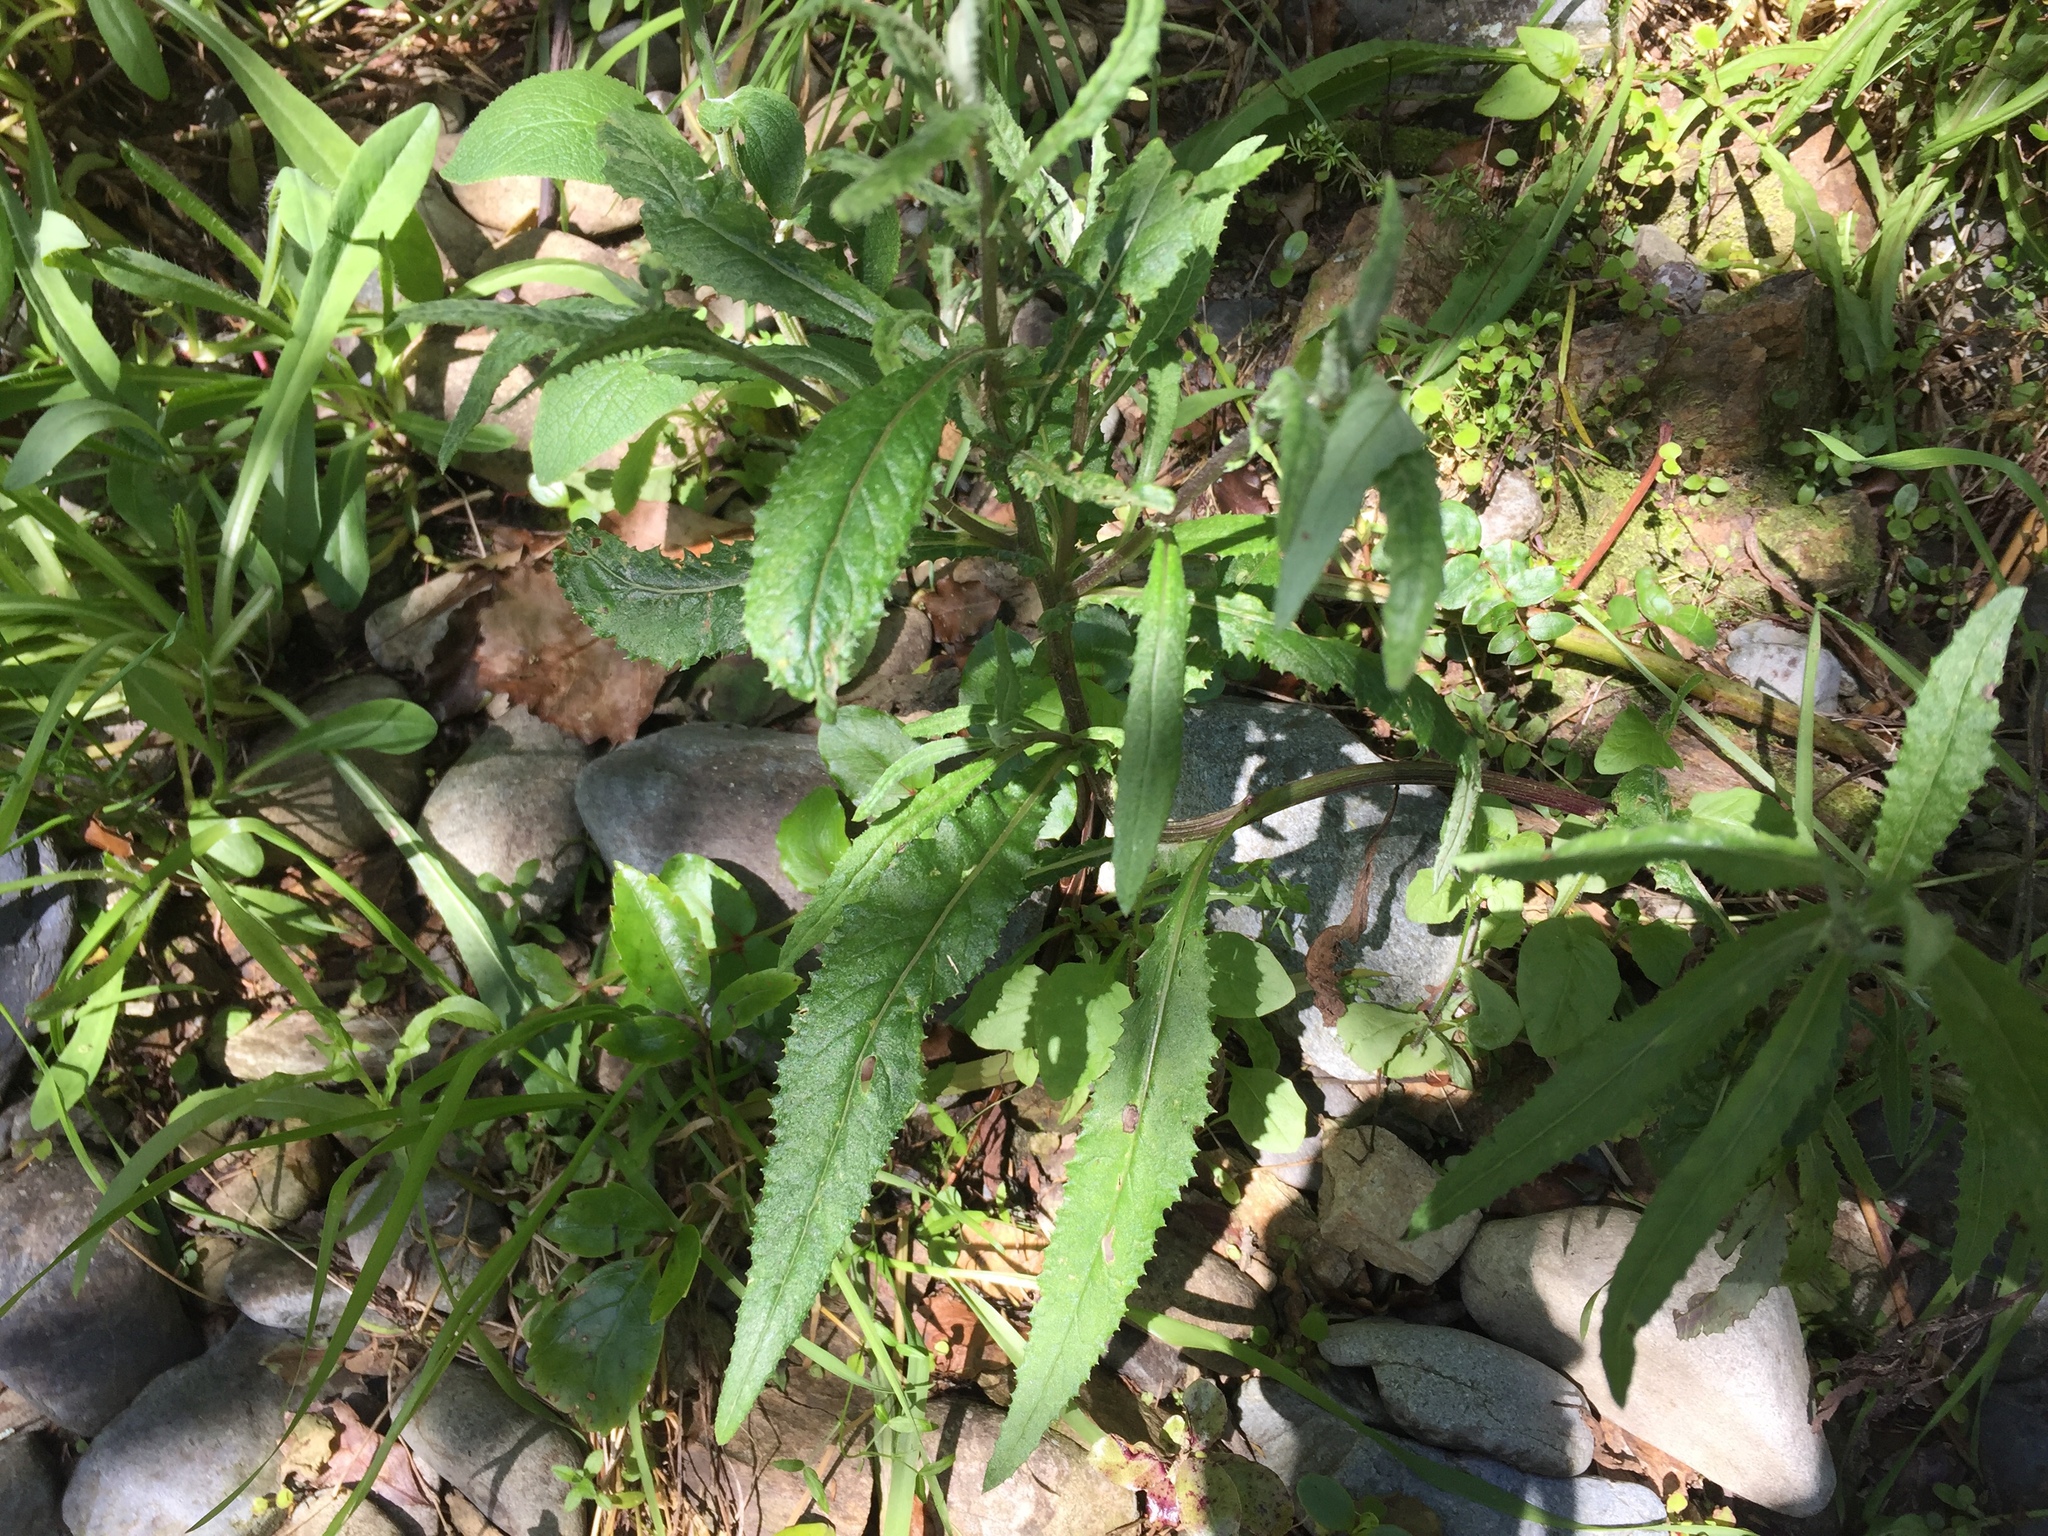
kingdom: Plantae
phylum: Tracheophyta
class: Magnoliopsida
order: Asterales
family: Asteraceae
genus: Senecio
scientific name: Senecio minimus
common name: Toothed fireweed
